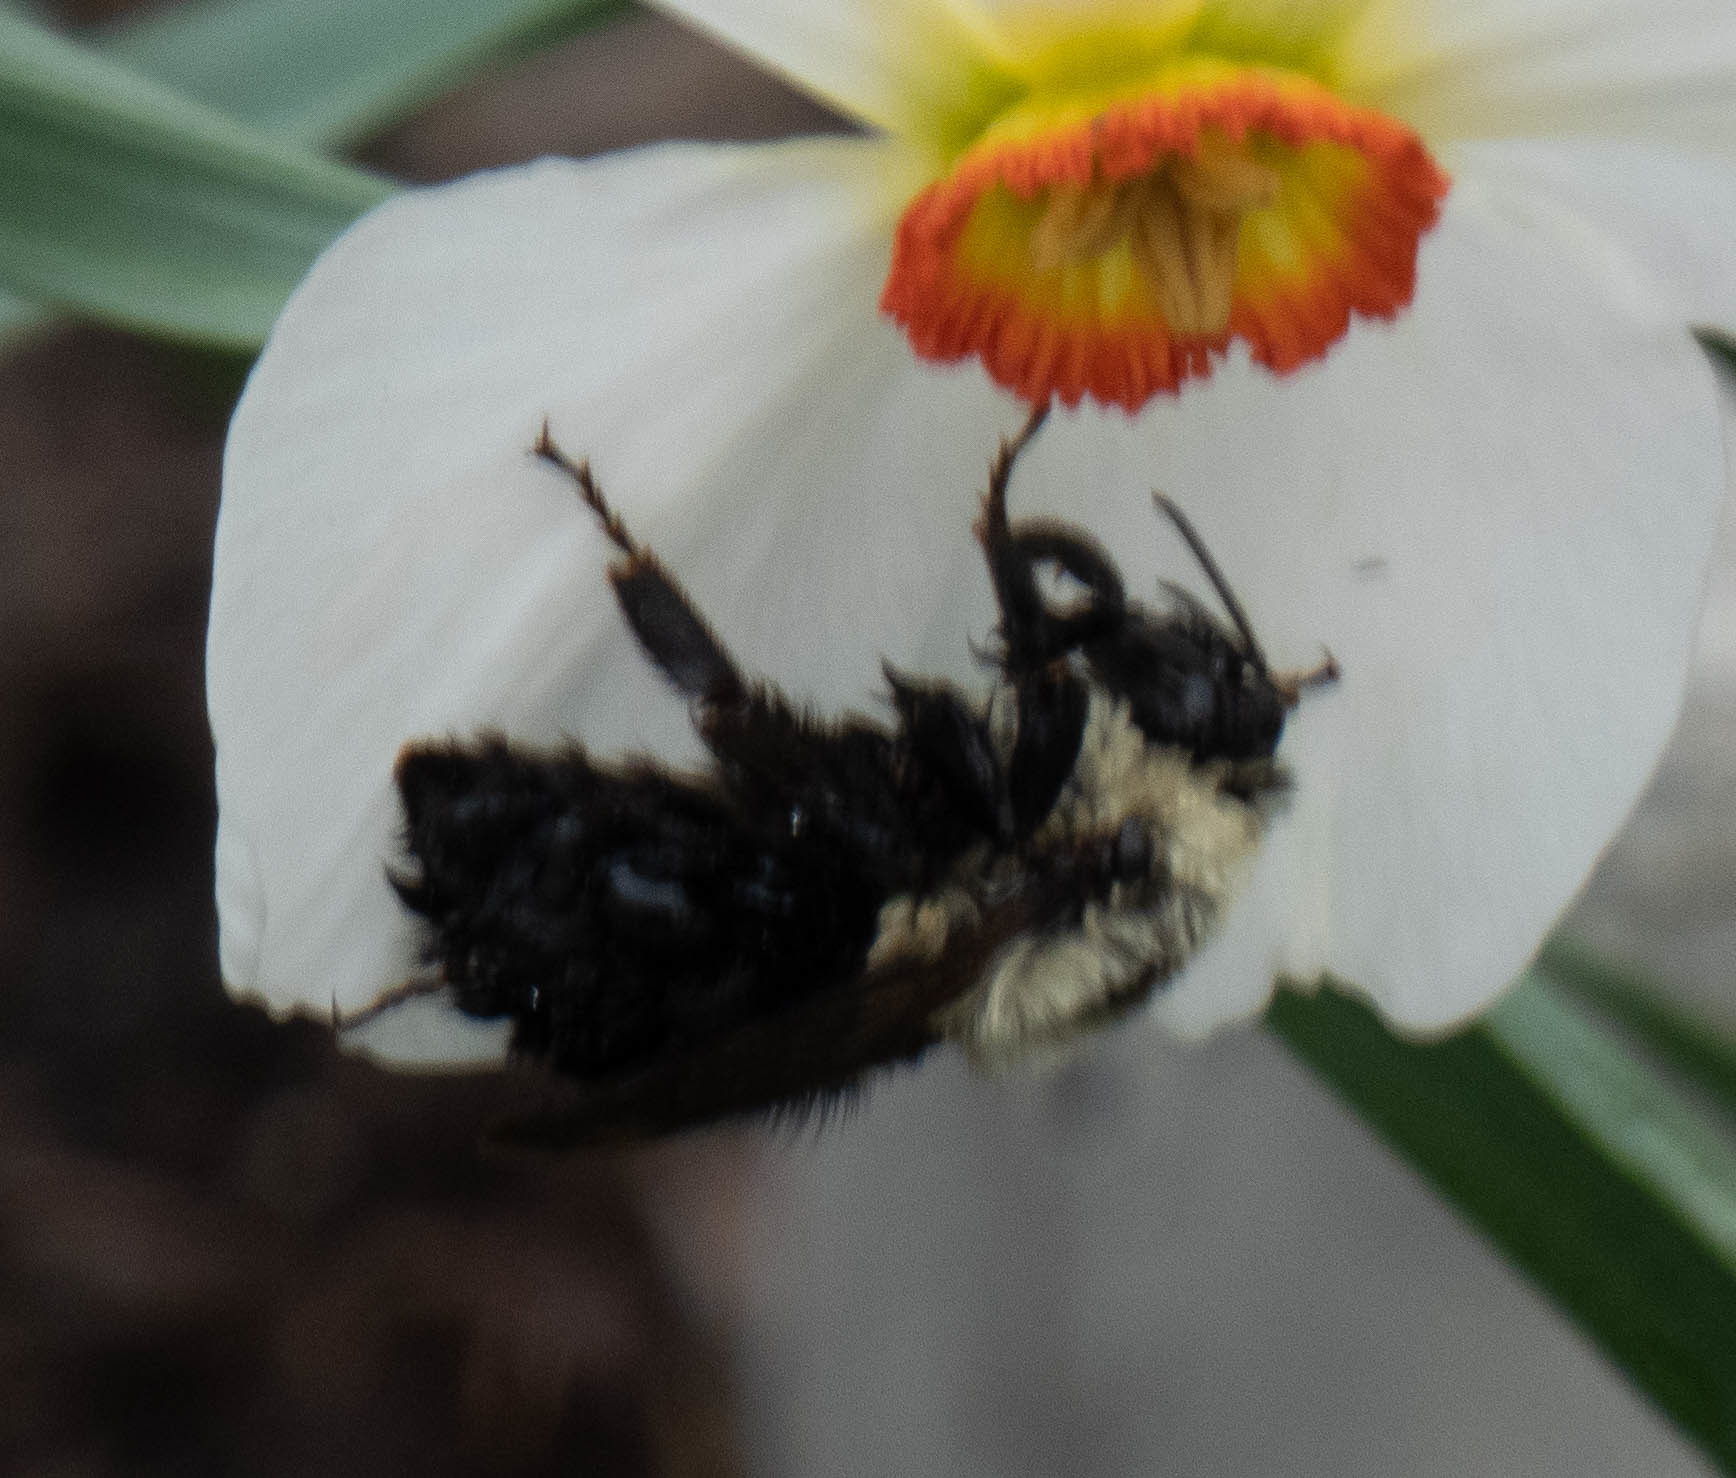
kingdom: Animalia
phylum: Arthropoda
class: Insecta
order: Hymenoptera
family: Apidae
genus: Bombus
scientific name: Bombus impatiens
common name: Common eastern bumble bee
